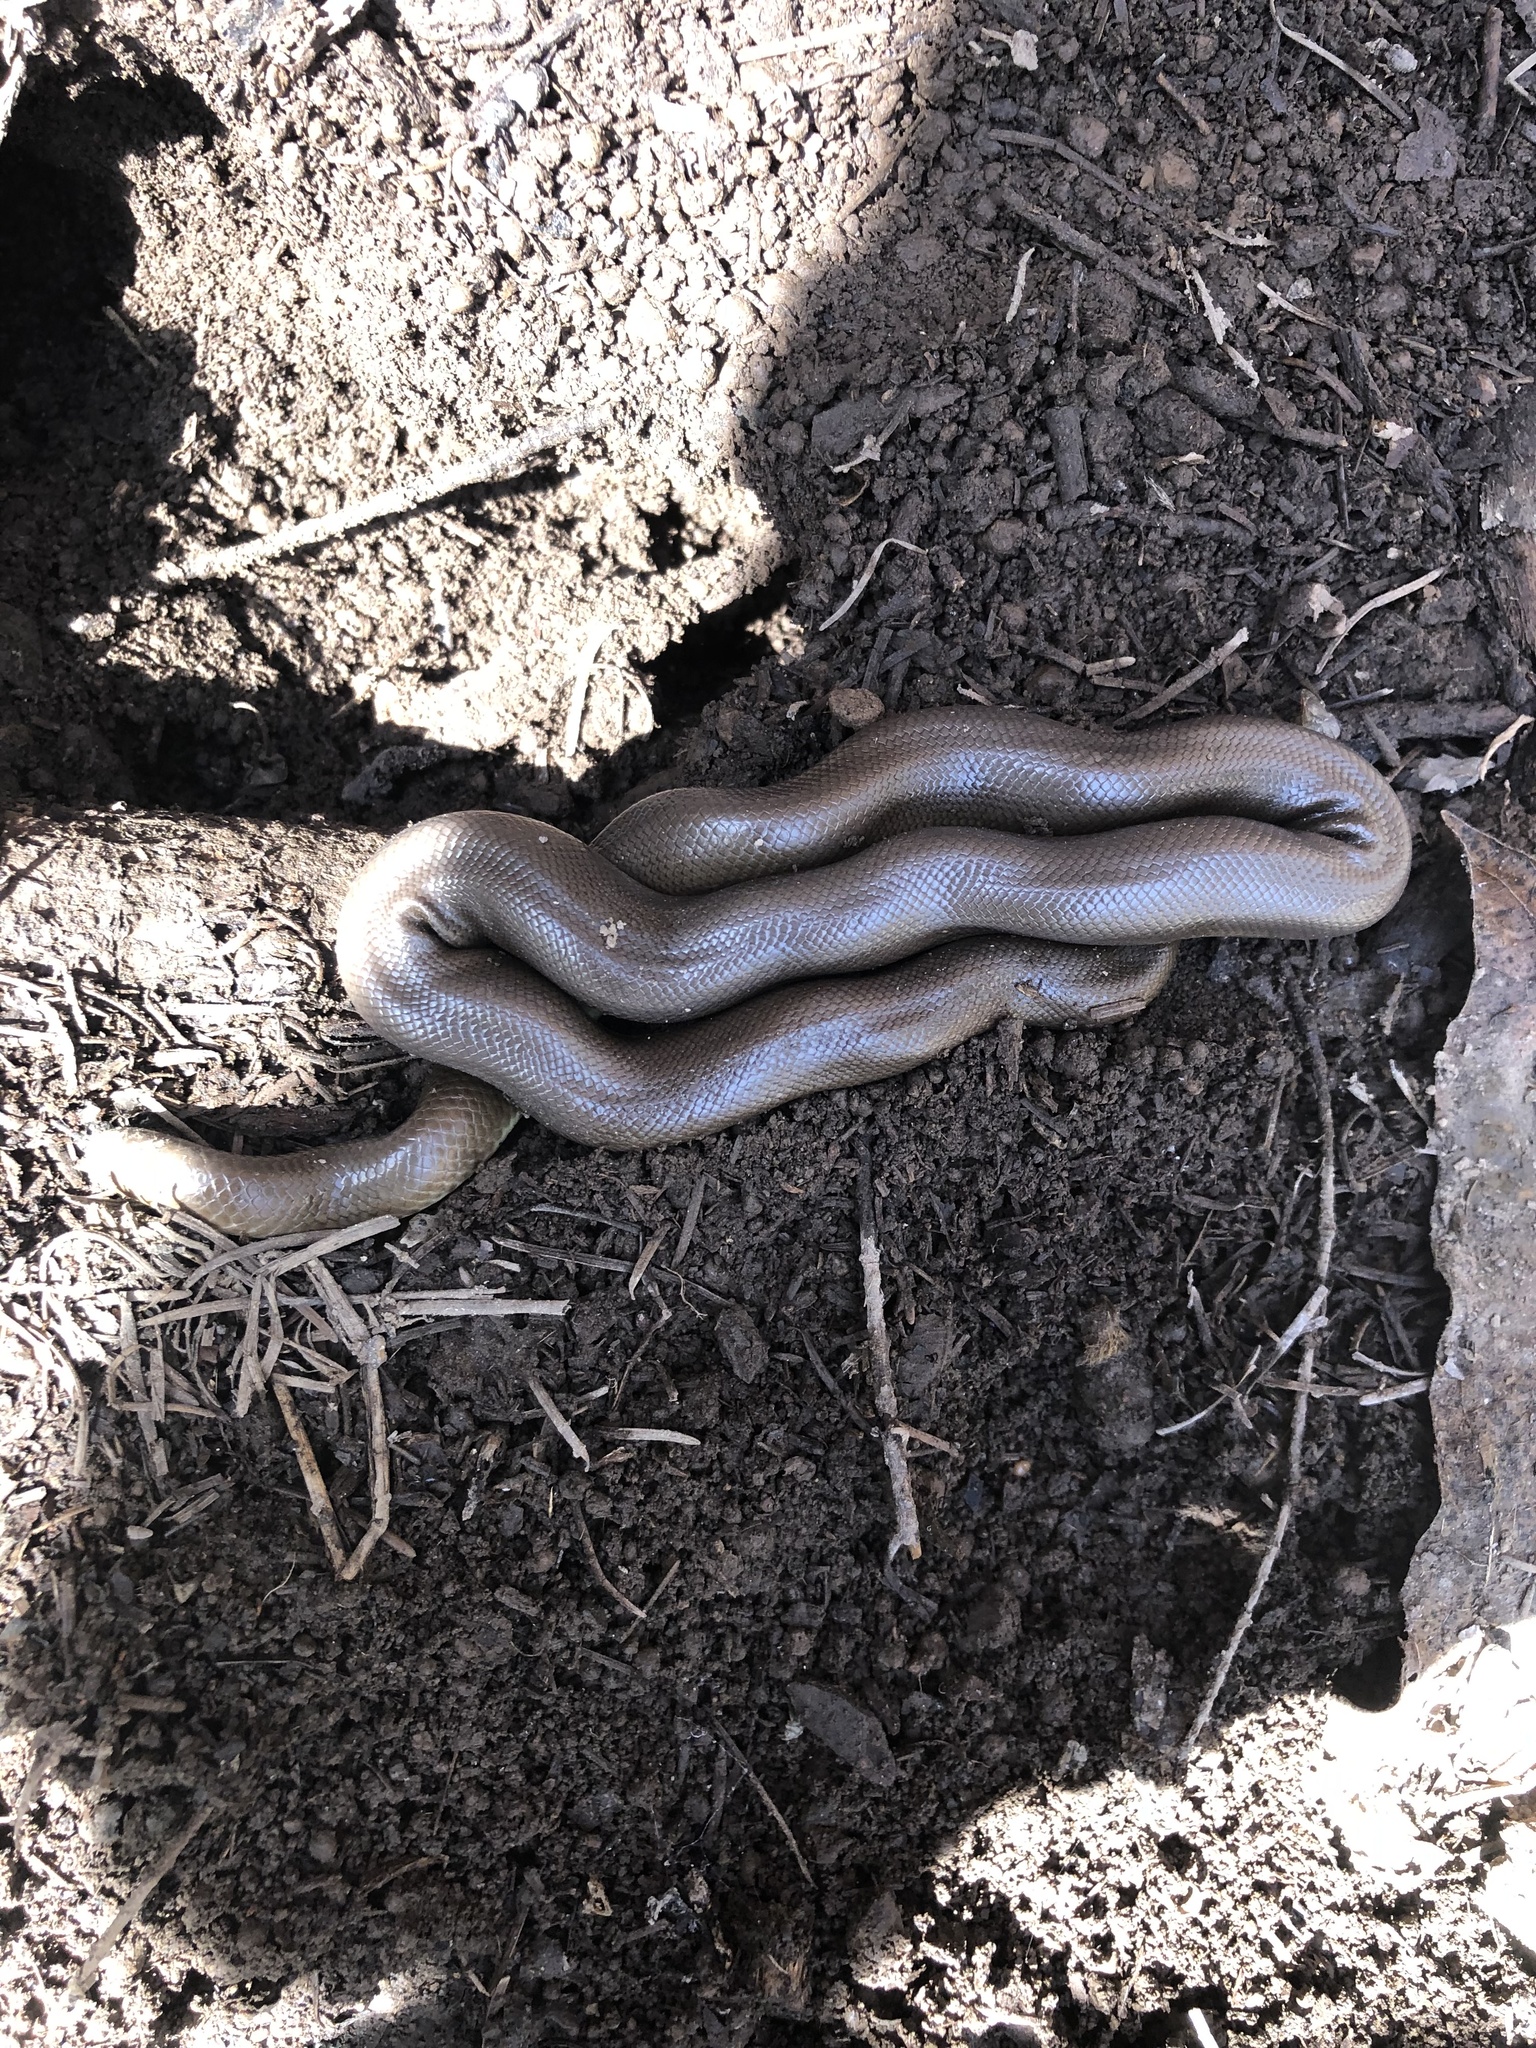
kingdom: Animalia
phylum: Chordata
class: Squamata
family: Boidae
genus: Charina
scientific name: Charina bottae
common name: Northern rubber boa
